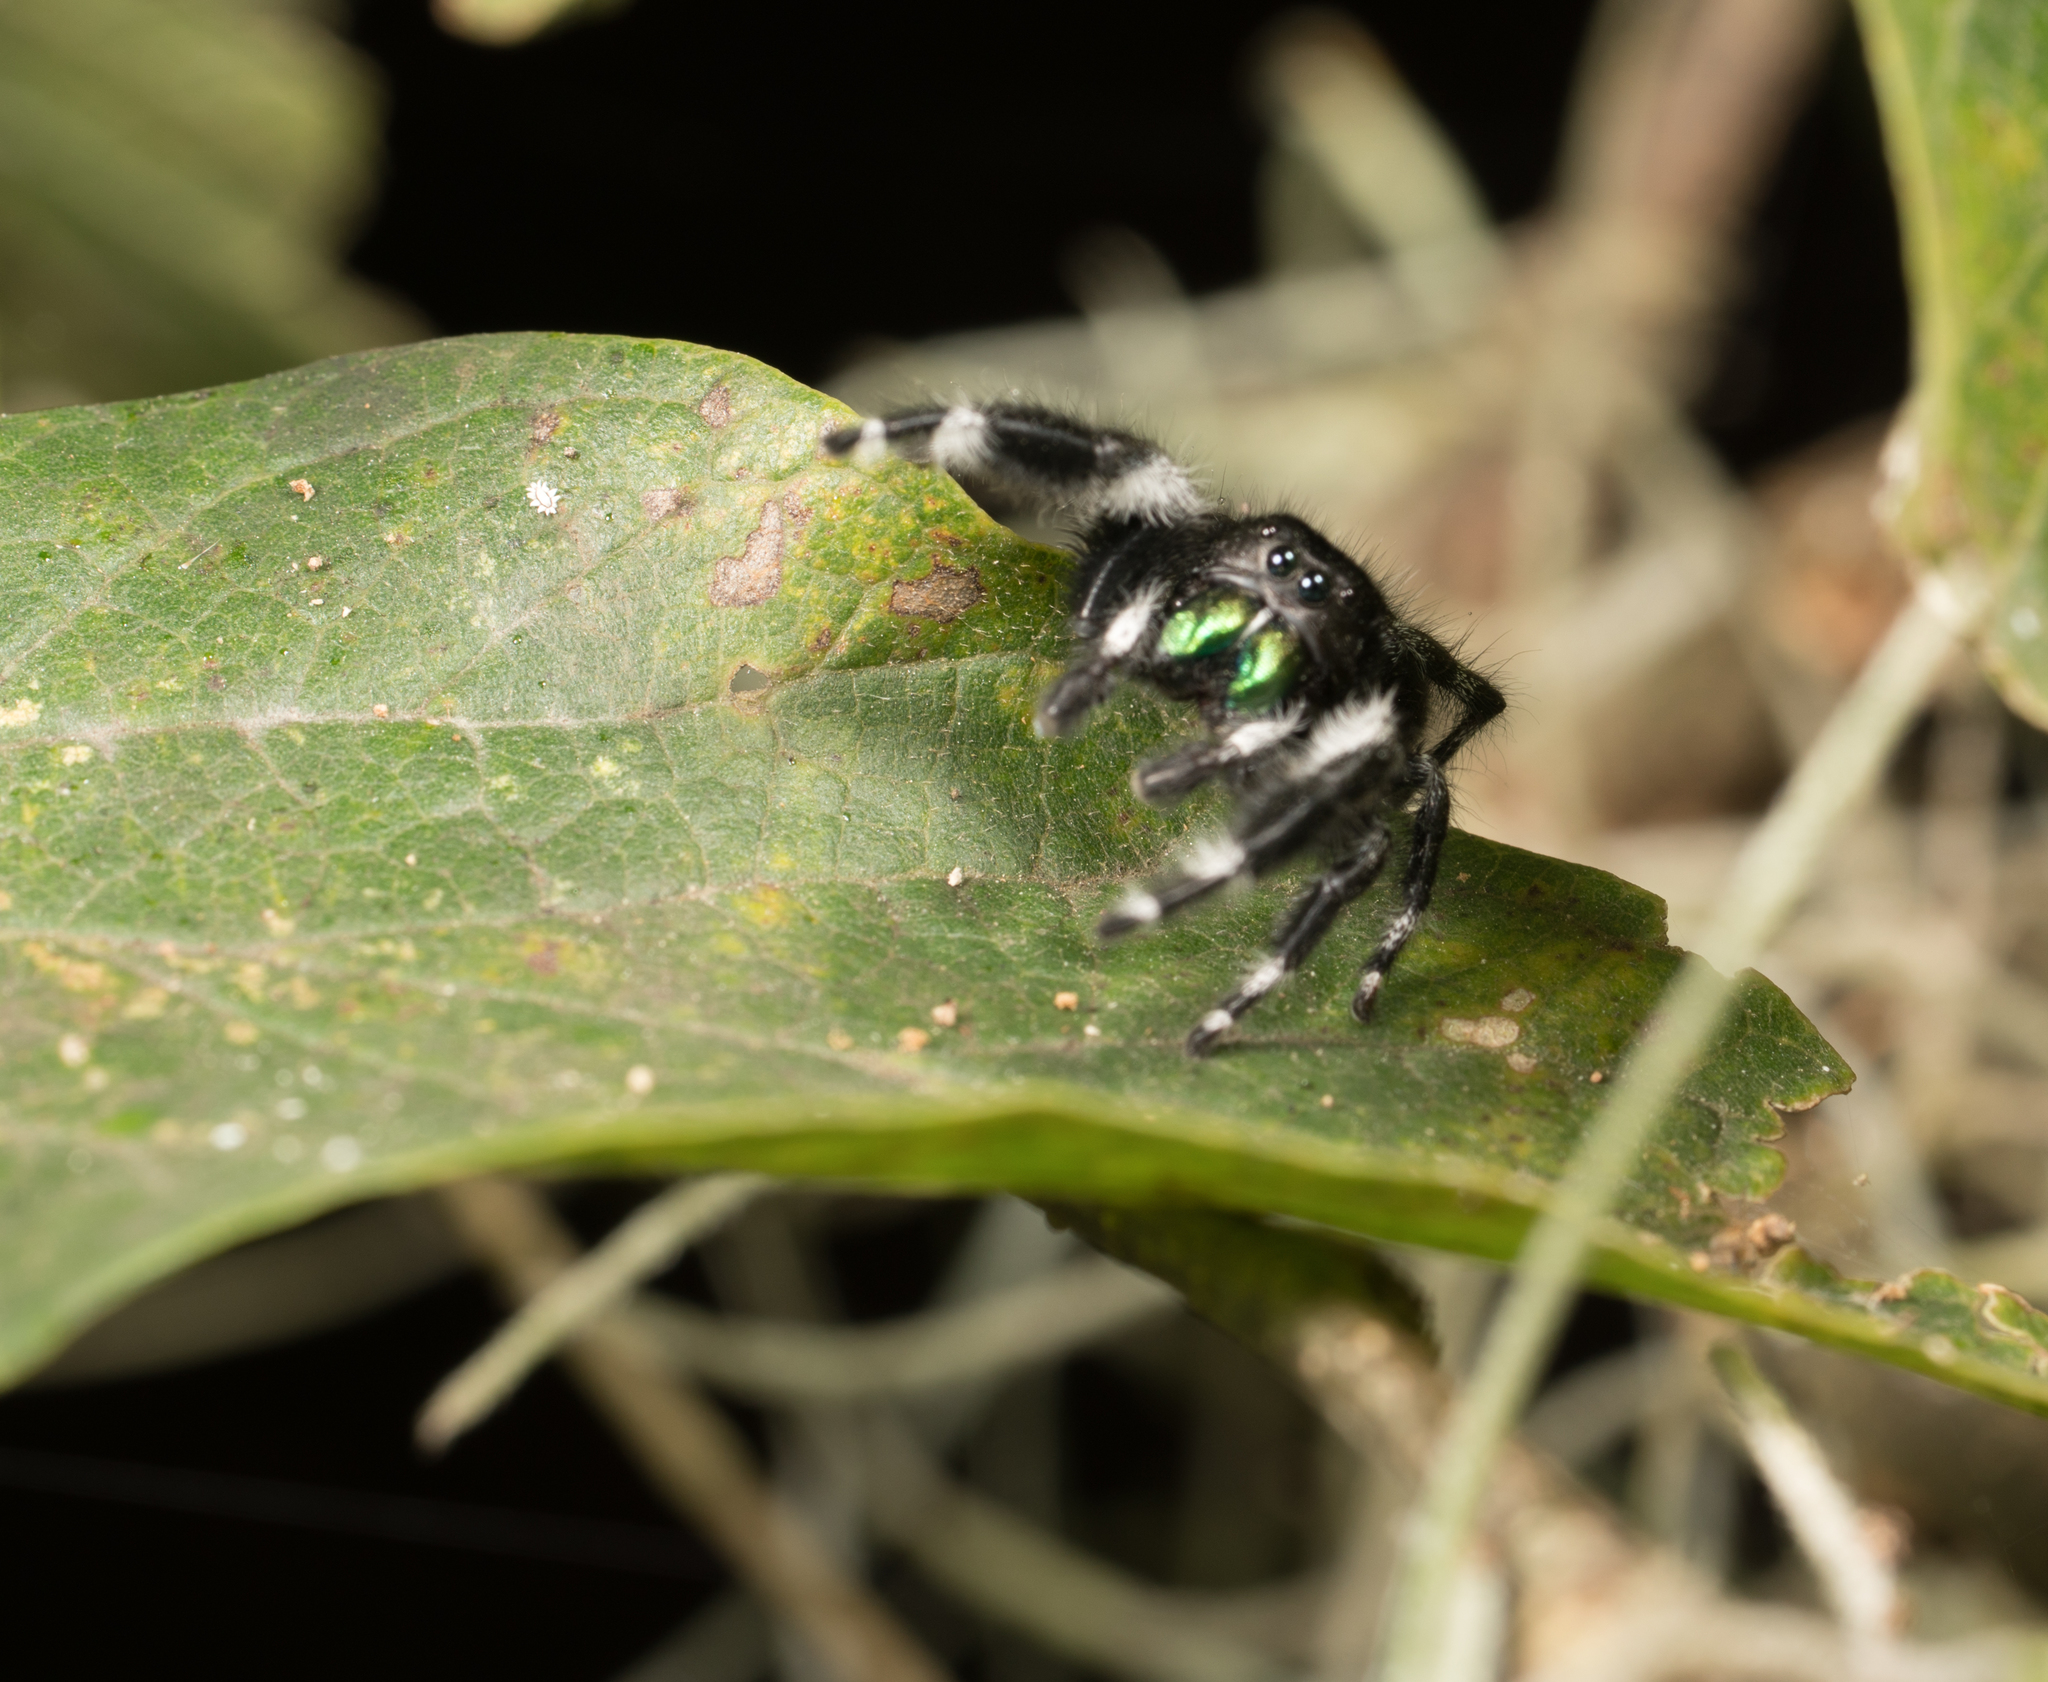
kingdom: Animalia
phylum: Arthropoda
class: Arachnida
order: Araneae
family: Salticidae
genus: Phidippus
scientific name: Phidippus audax
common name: Bold jumper
